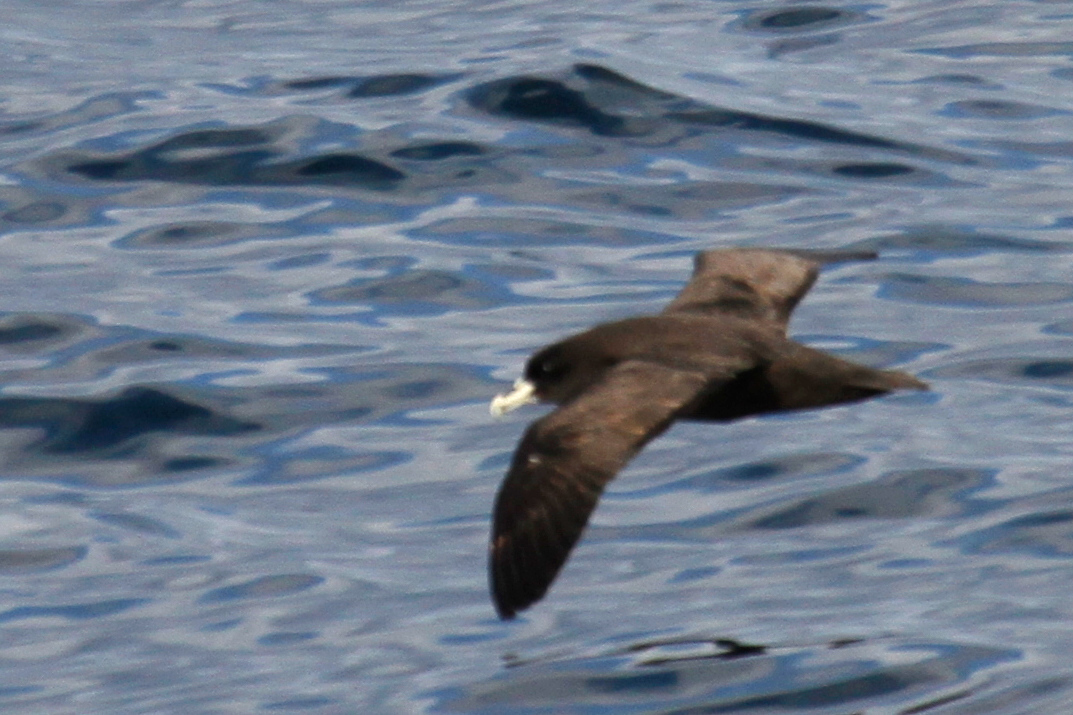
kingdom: Animalia
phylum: Chordata
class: Aves
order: Procellariiformes
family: Procellariidae
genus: Procellaria
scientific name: Procellaria aequinoctialis
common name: White-chinned petrel
